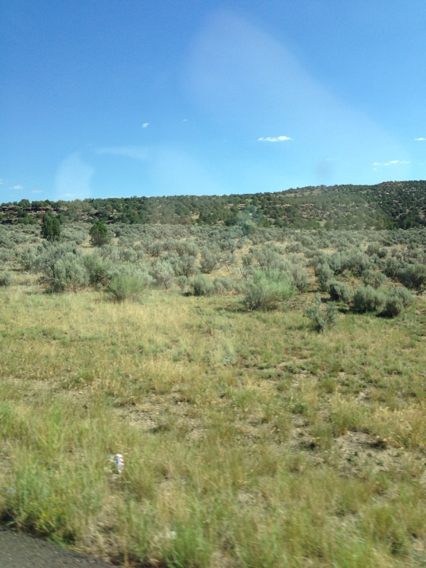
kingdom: Plantae
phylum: Tracheophyta
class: Magnoliopsida
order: Asterales
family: Asteraceae
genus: Artemisia
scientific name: Artemisia tridentata
